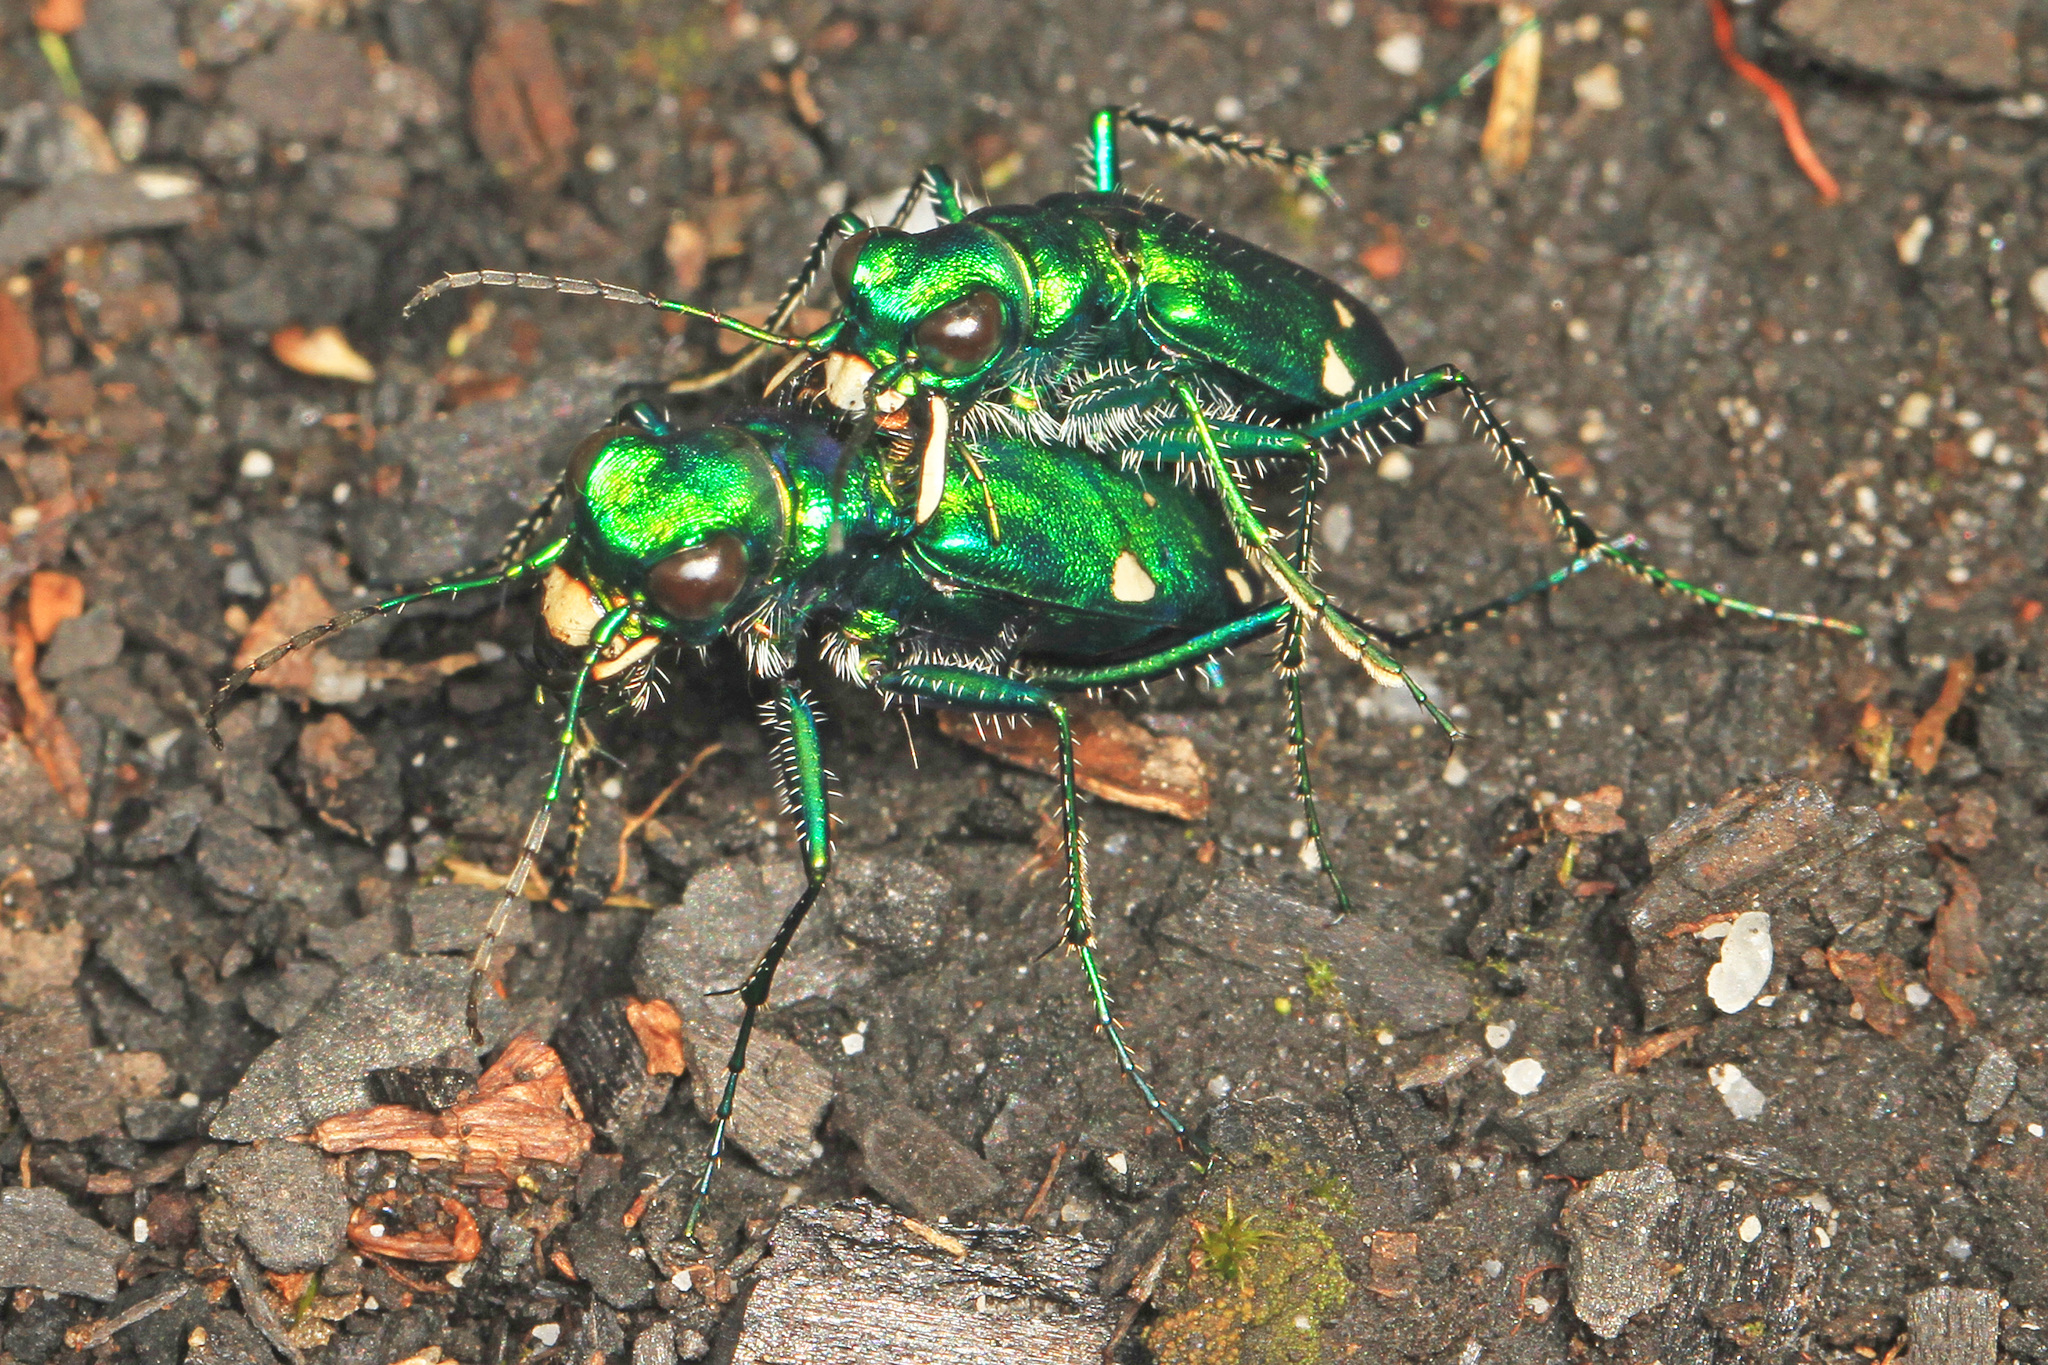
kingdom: Animalia
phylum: Arthropoda
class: Insecta
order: Coleoptera
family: Carabidae
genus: Cicindela
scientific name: Cicindela sexguttata
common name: Six-spotted tiger beetle
